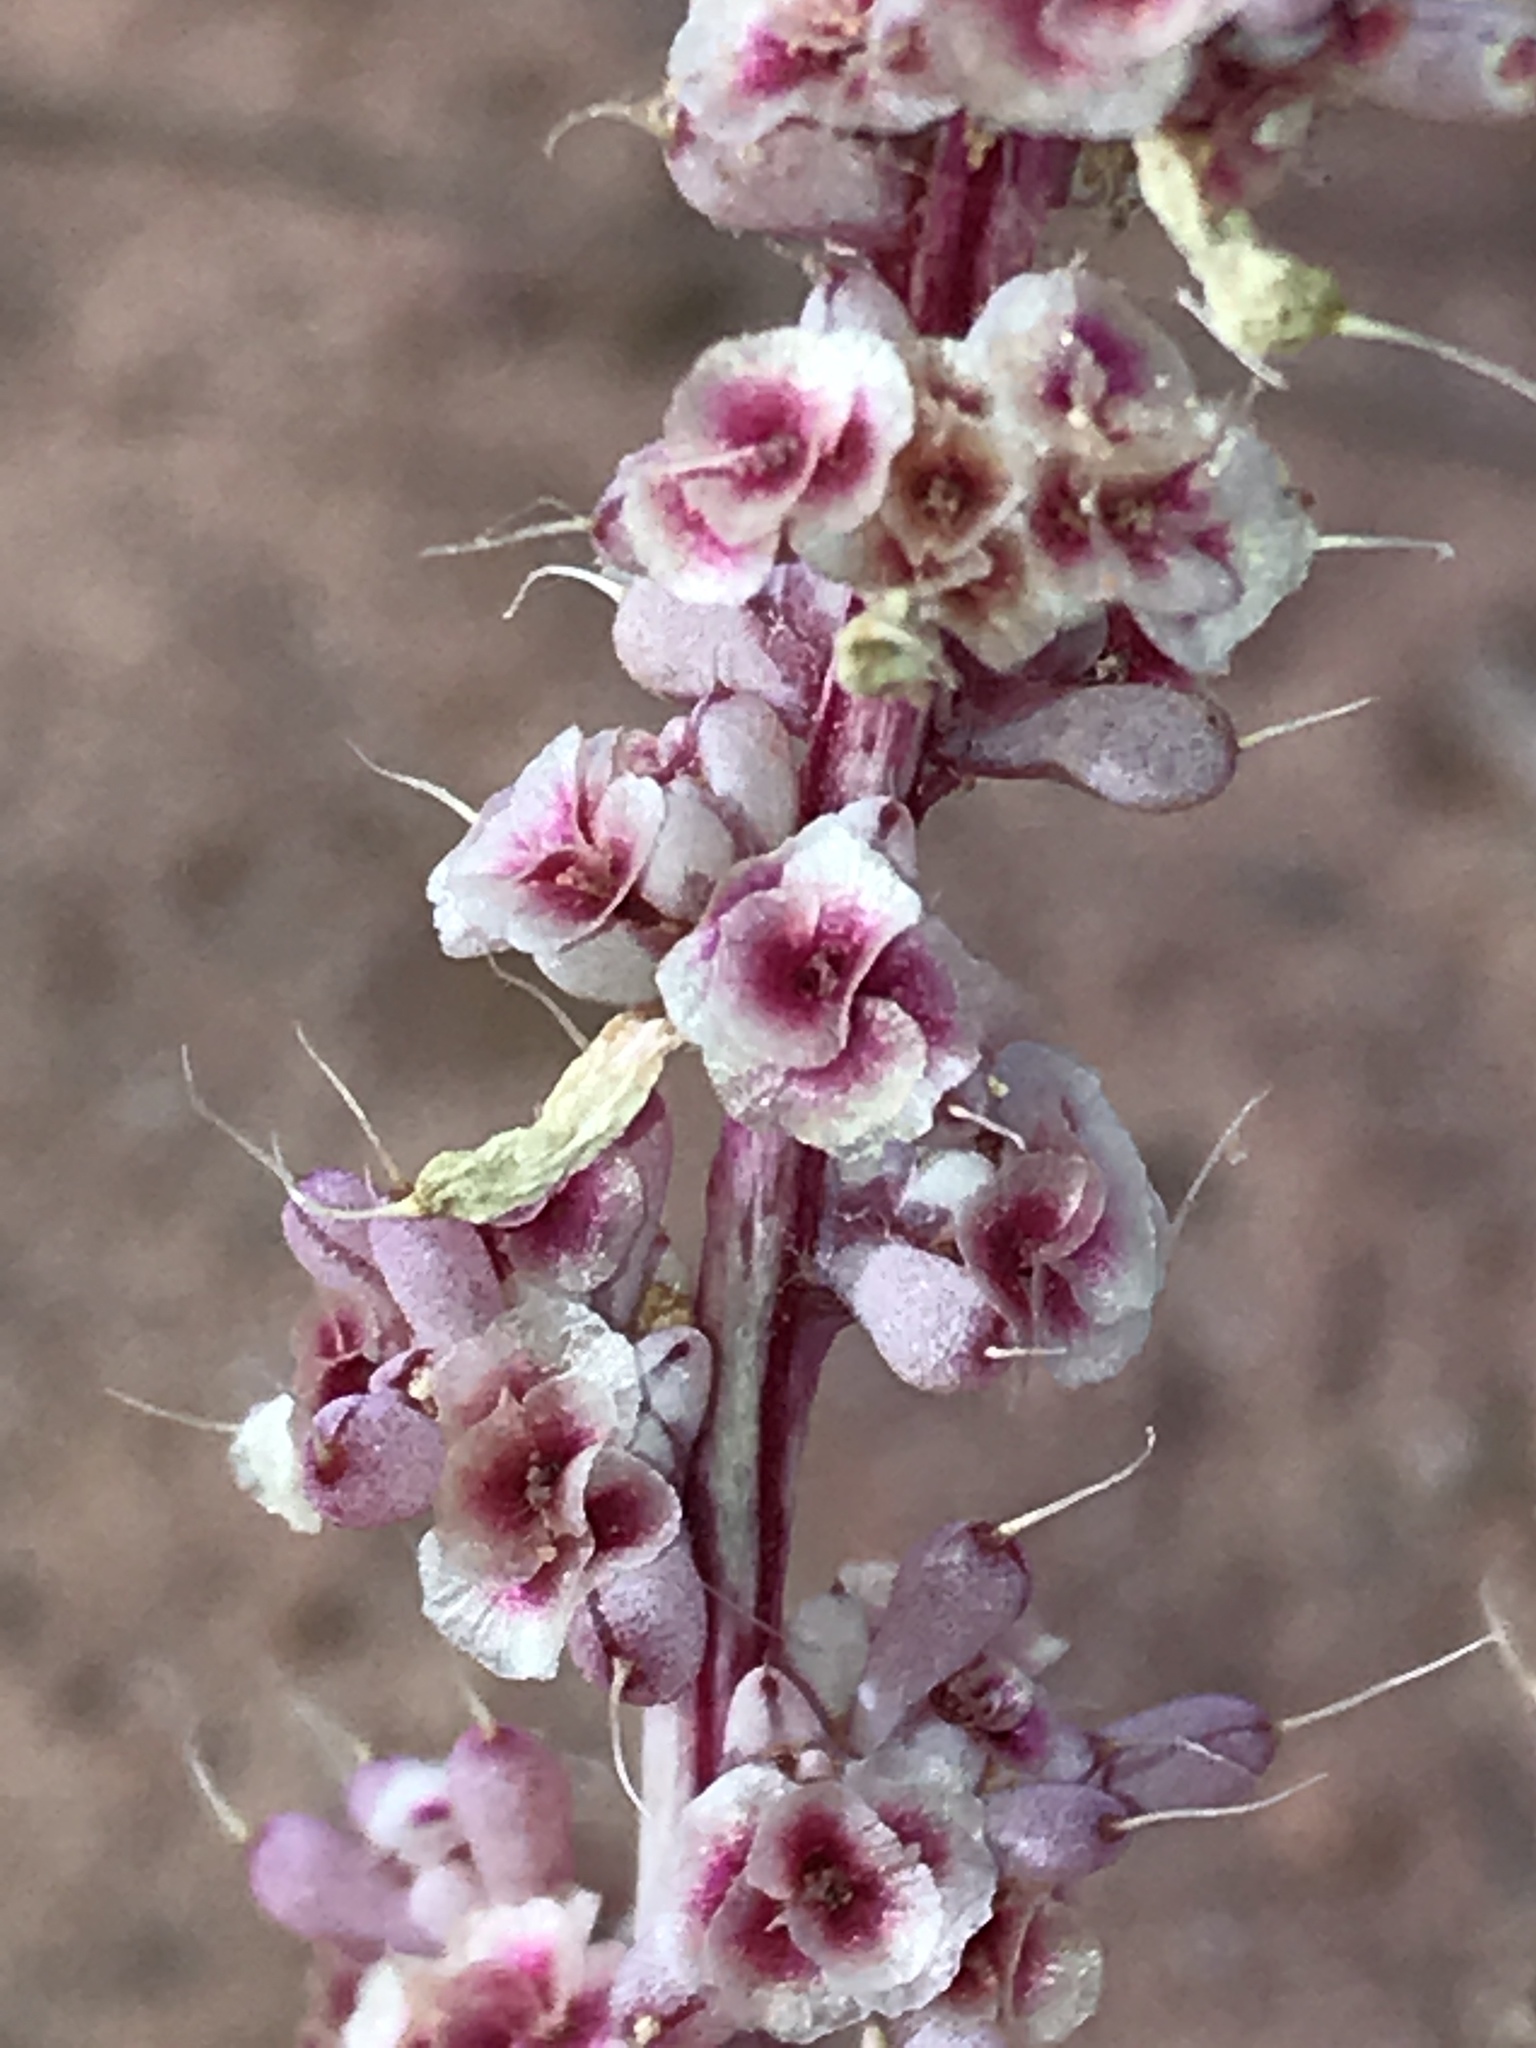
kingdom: Plantae
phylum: Tracheophyta
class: Magnoliopsida
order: Caryophyllales
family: Amaranthaceae
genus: Halogeton
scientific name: Halogeton glomeratus
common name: Saltlover
